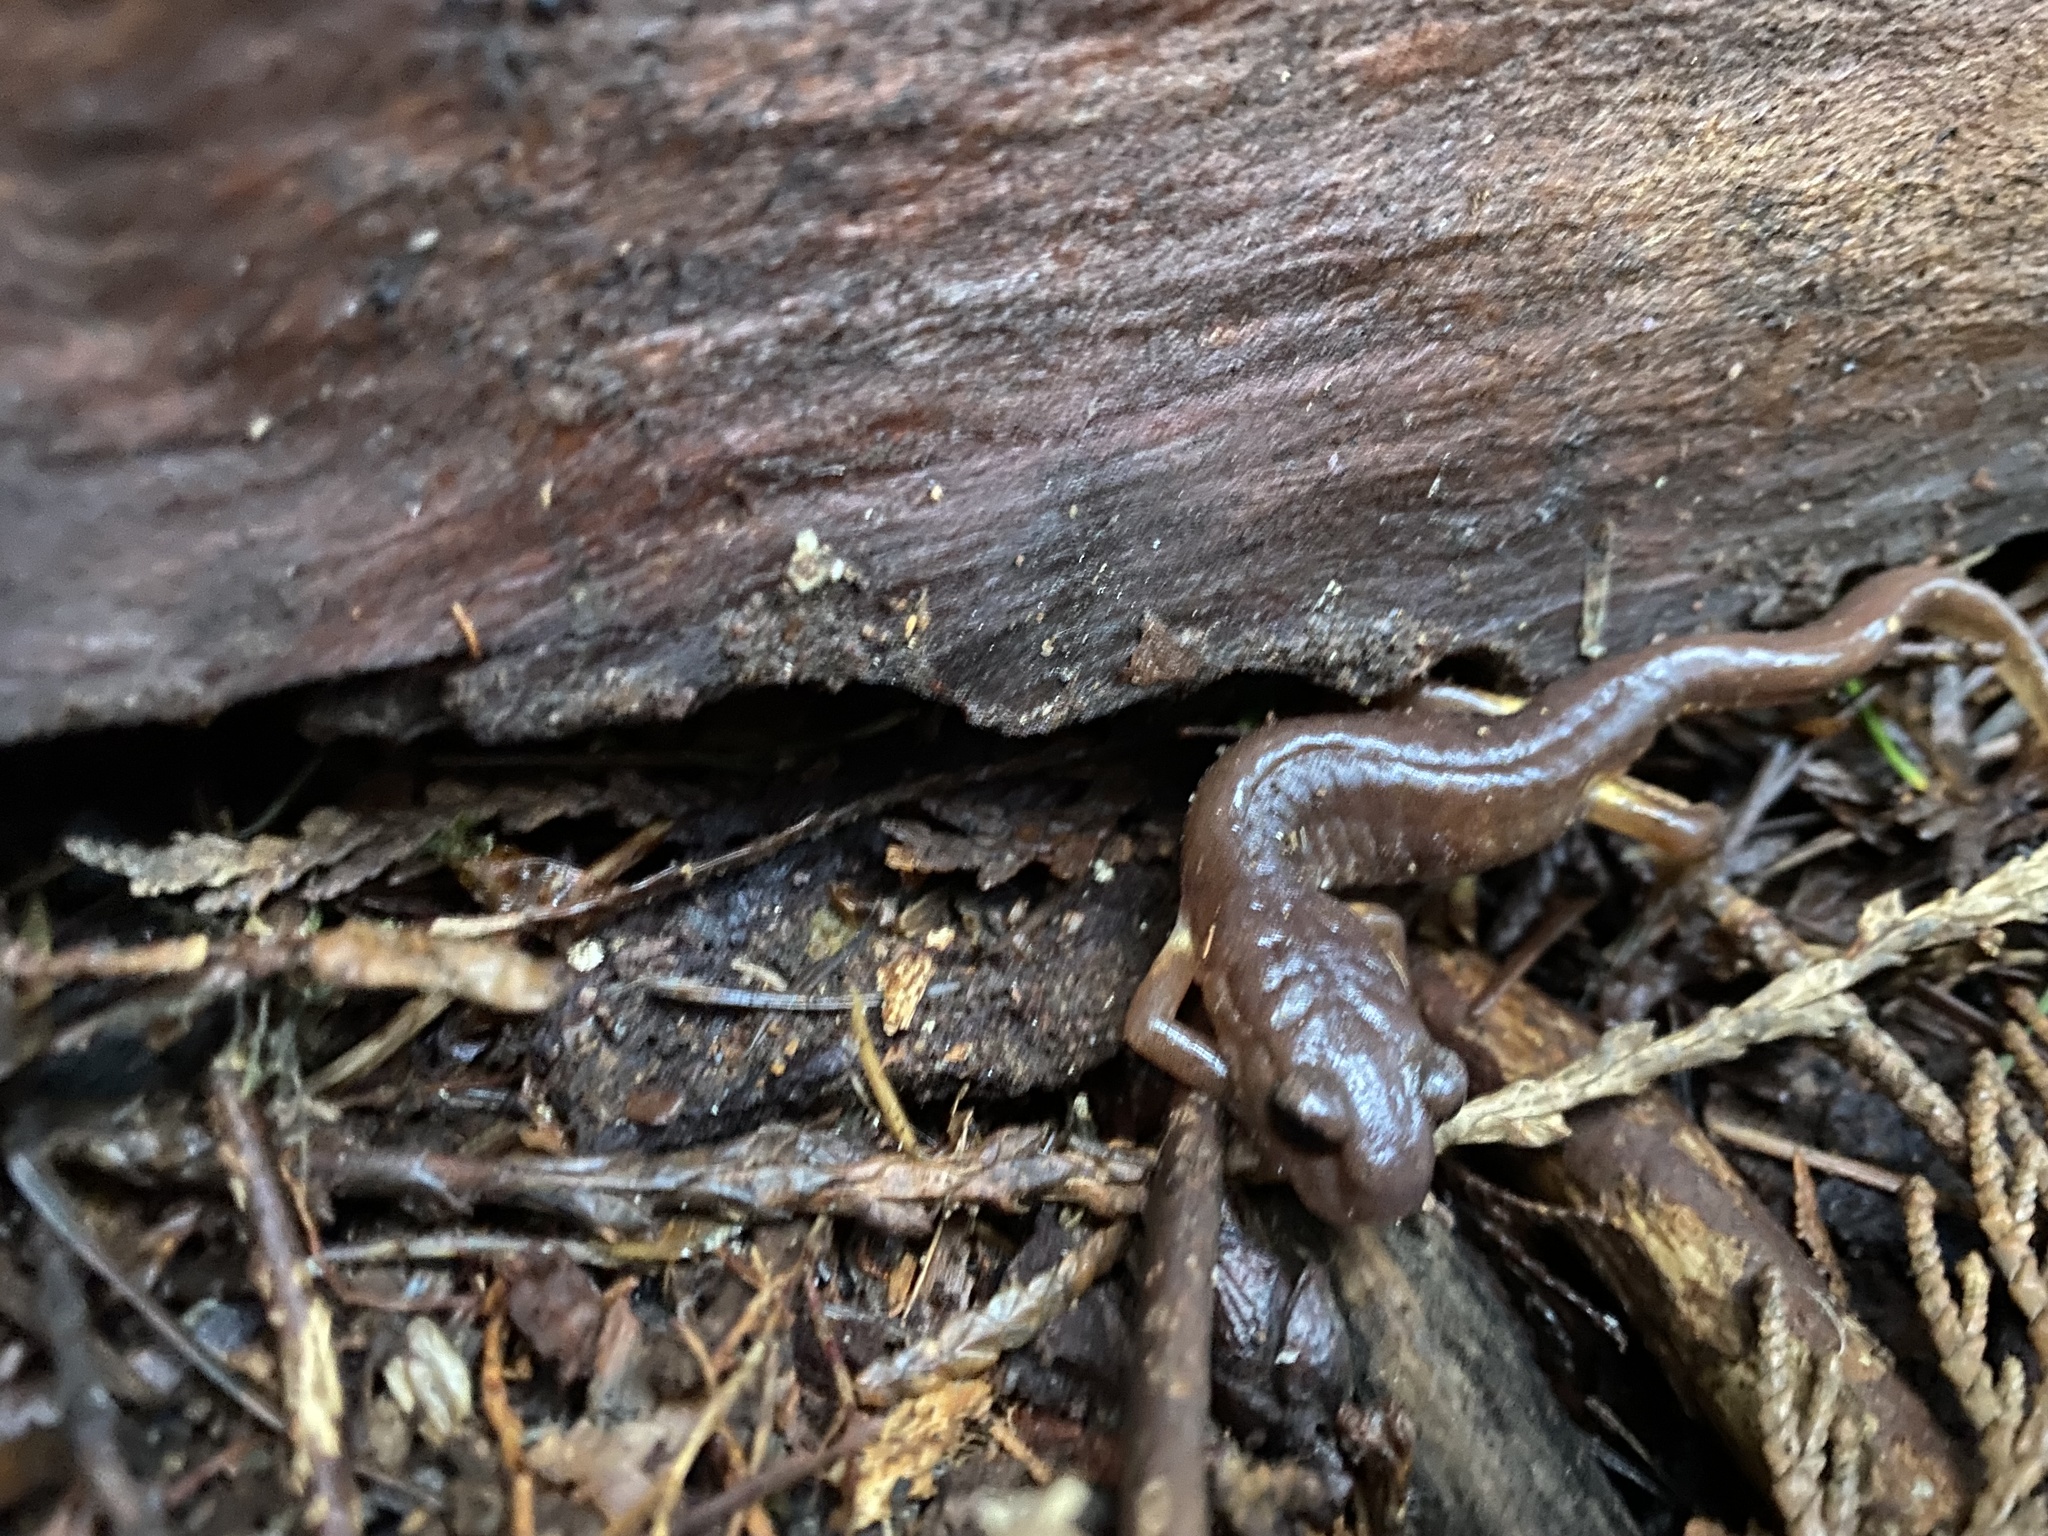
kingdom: Animalia
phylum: Chordata
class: Amphibia
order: Caudata
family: Plethodontidae
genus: Ensatina
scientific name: Ensatina eschscholtzii
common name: Ensatina
